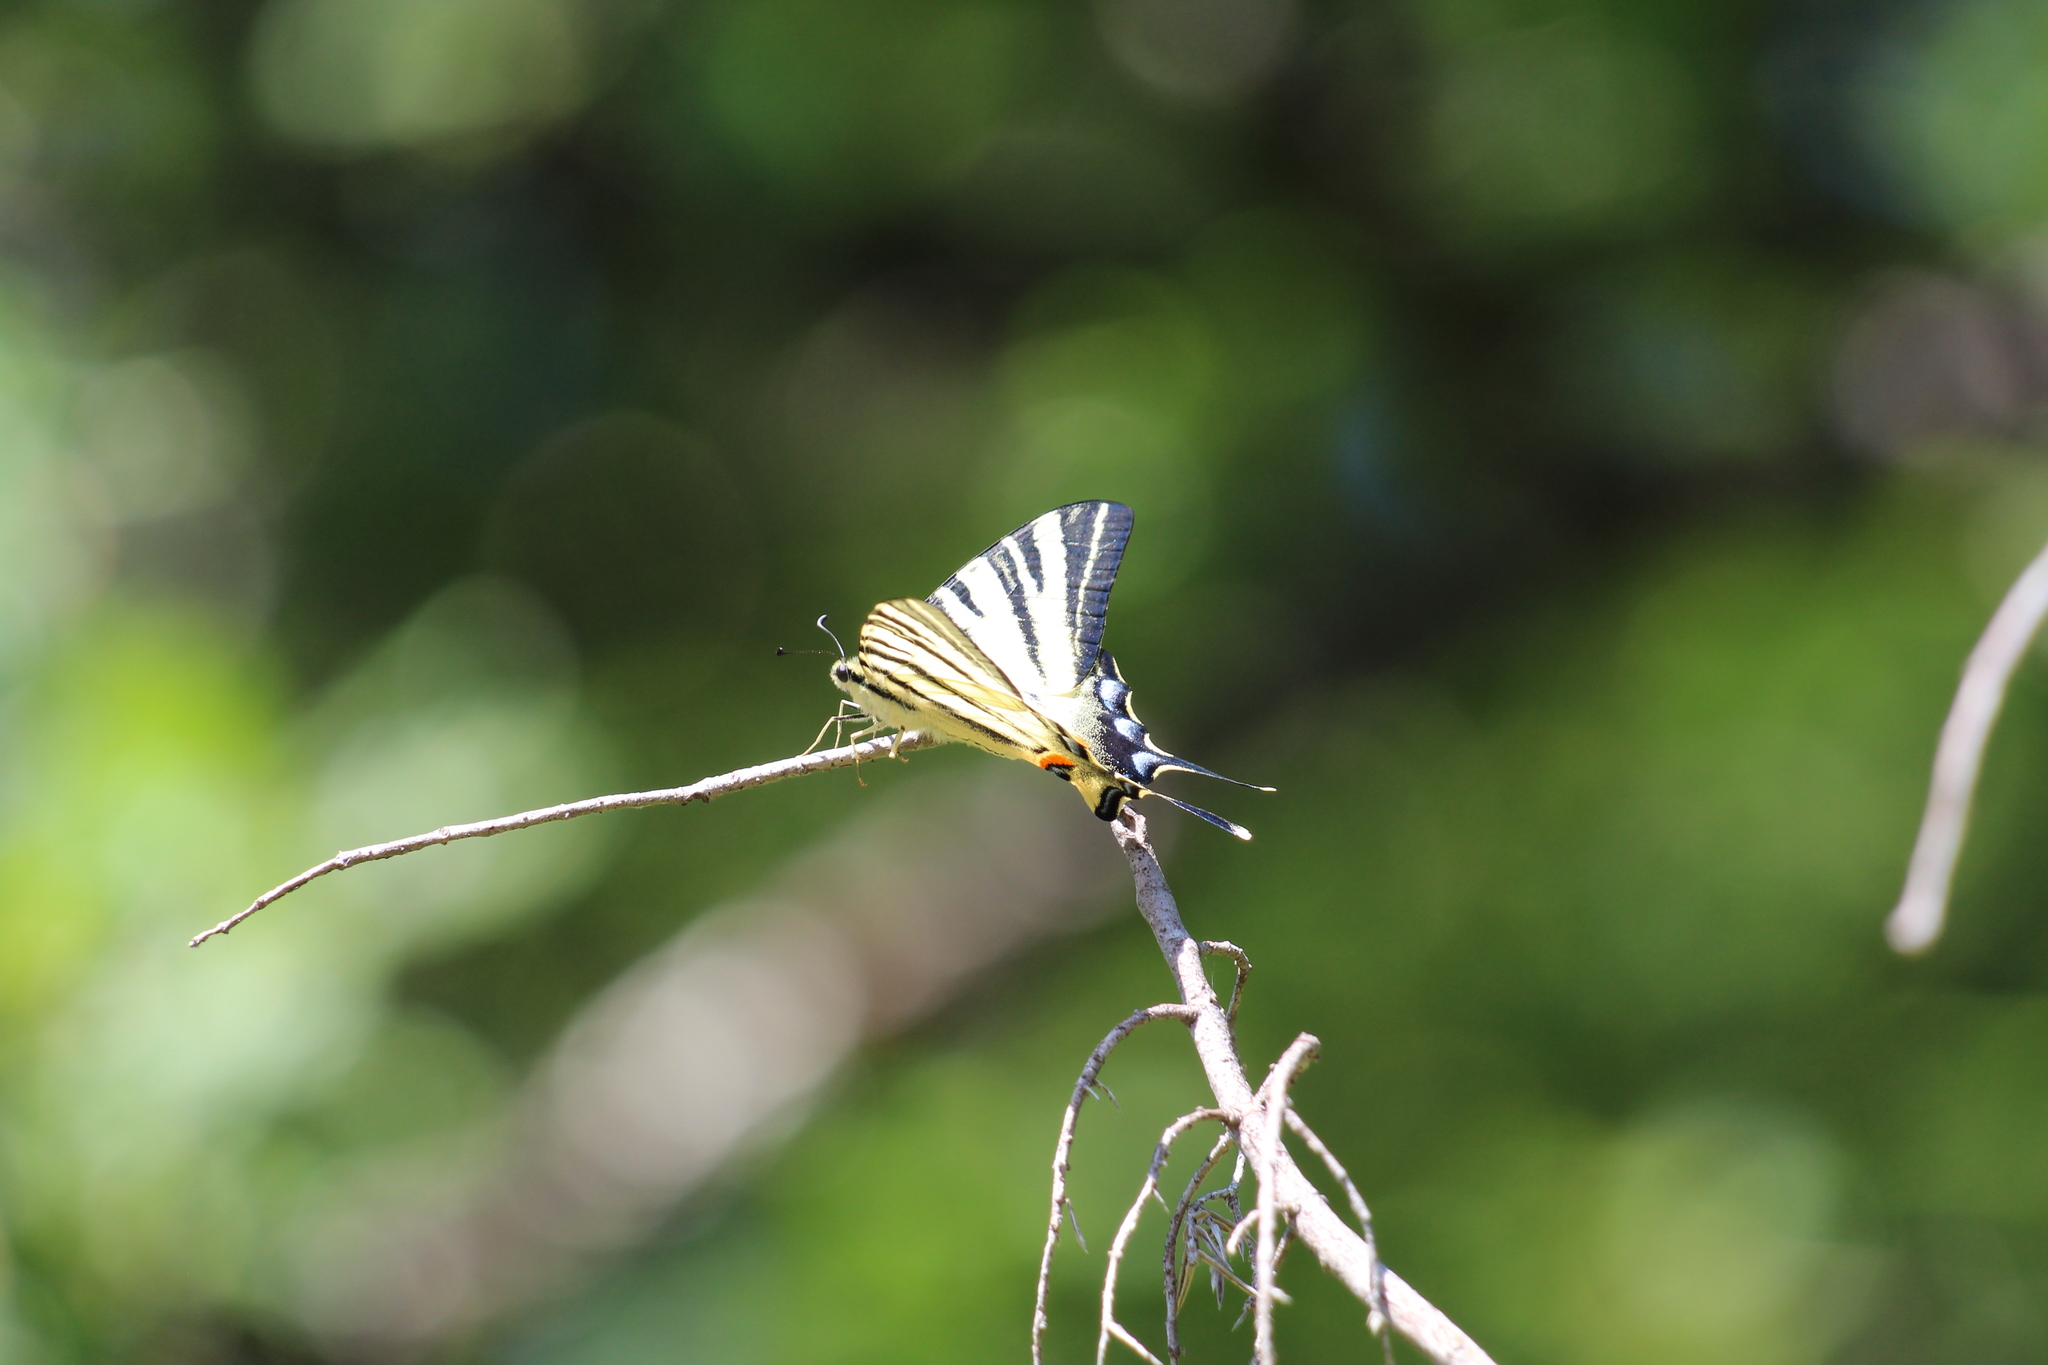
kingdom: Animalia
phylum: Arthropoda
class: Insecta
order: Lepidoptera
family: Papilionidae
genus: Iphiclides
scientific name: Iphiclides podalirius
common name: Scarce swallowtail
